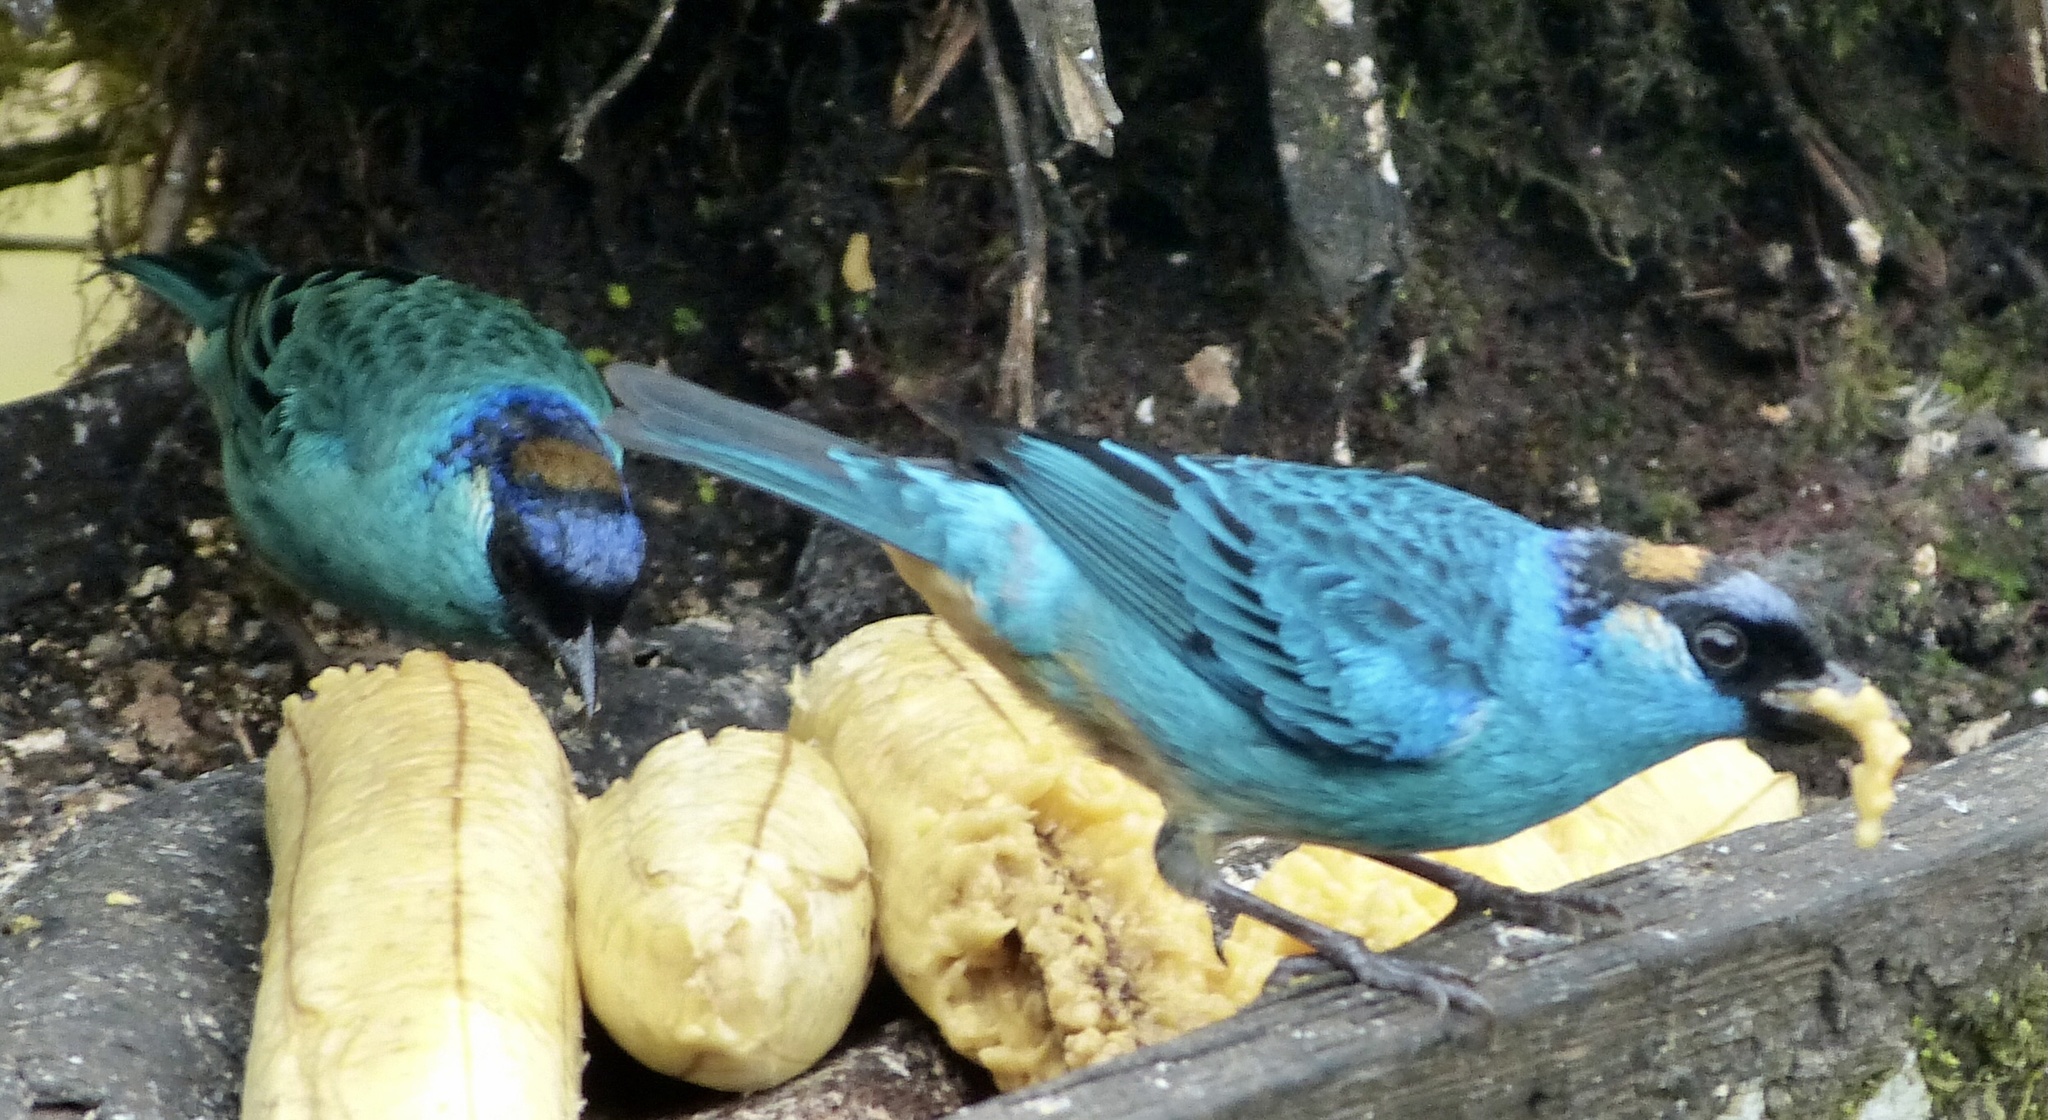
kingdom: Animalia
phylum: Chordata
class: Aves
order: Passeriformes
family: Thraupidae
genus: Chalcothraupis
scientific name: Chalcothraupis ruficervix
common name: Golden-naped tanager
